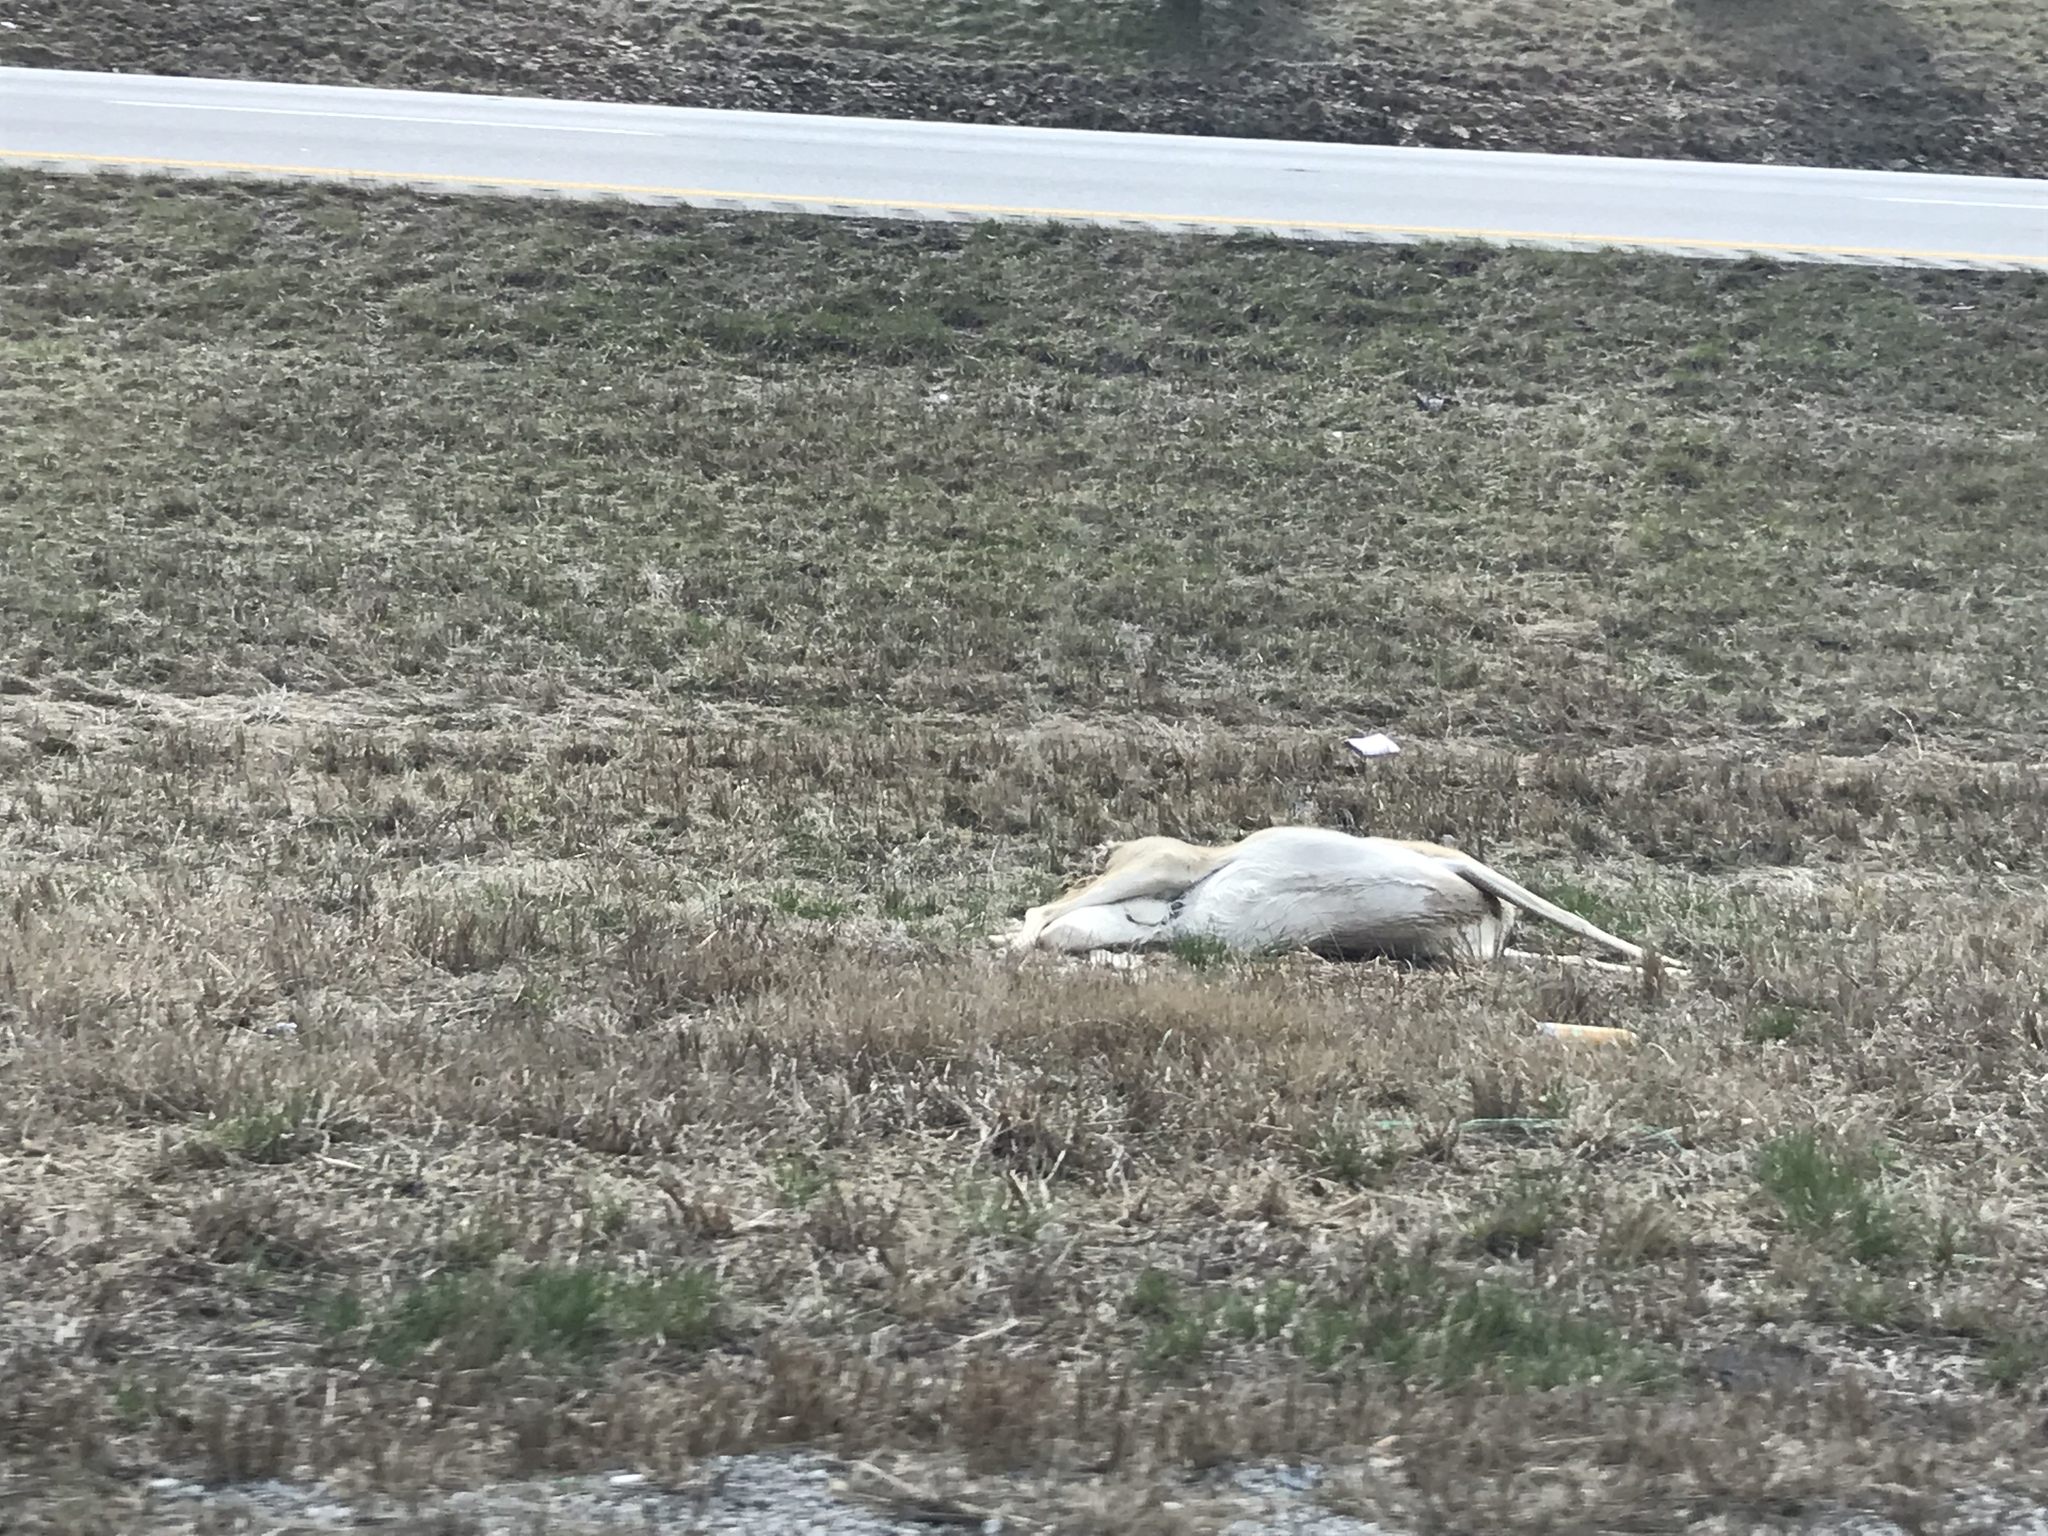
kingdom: Animalia
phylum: Chordata
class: Mammalia
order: Artiodactyla
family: Cervidae
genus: Odocoileus
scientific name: Odocoileus virginianus
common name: White-tailed deer
